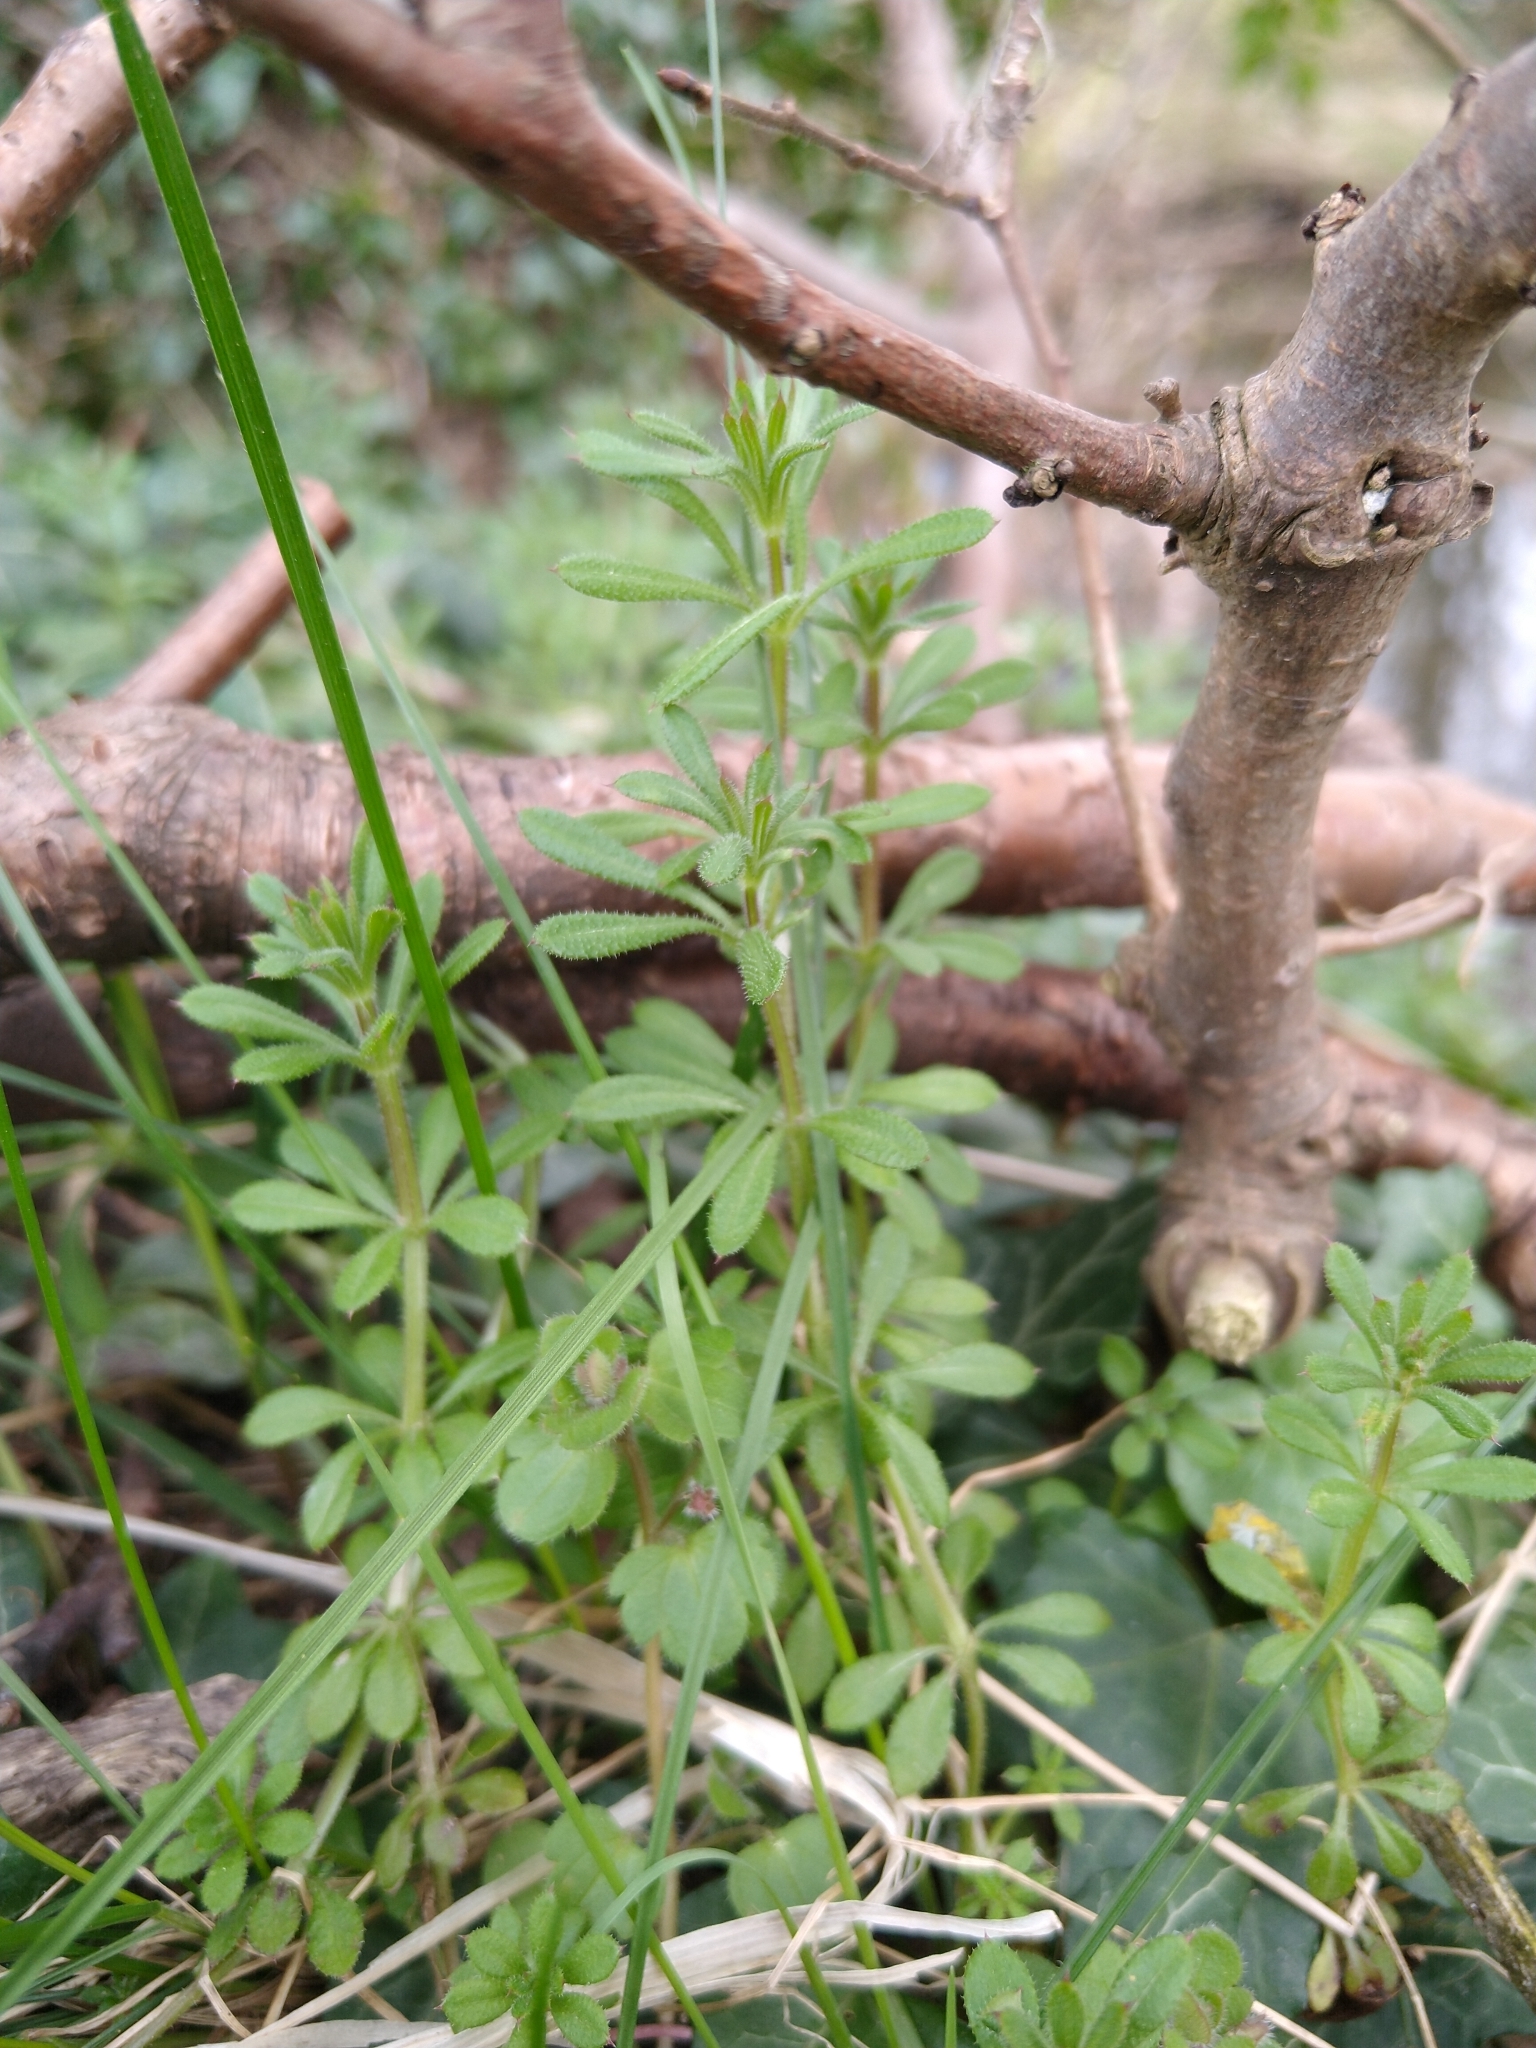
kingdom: Plantae
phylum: Tracheophyta
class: Magnoliopsida
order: Gentianales
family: Rubiaceae
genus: Galium
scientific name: Galium aparine
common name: Cleavers
